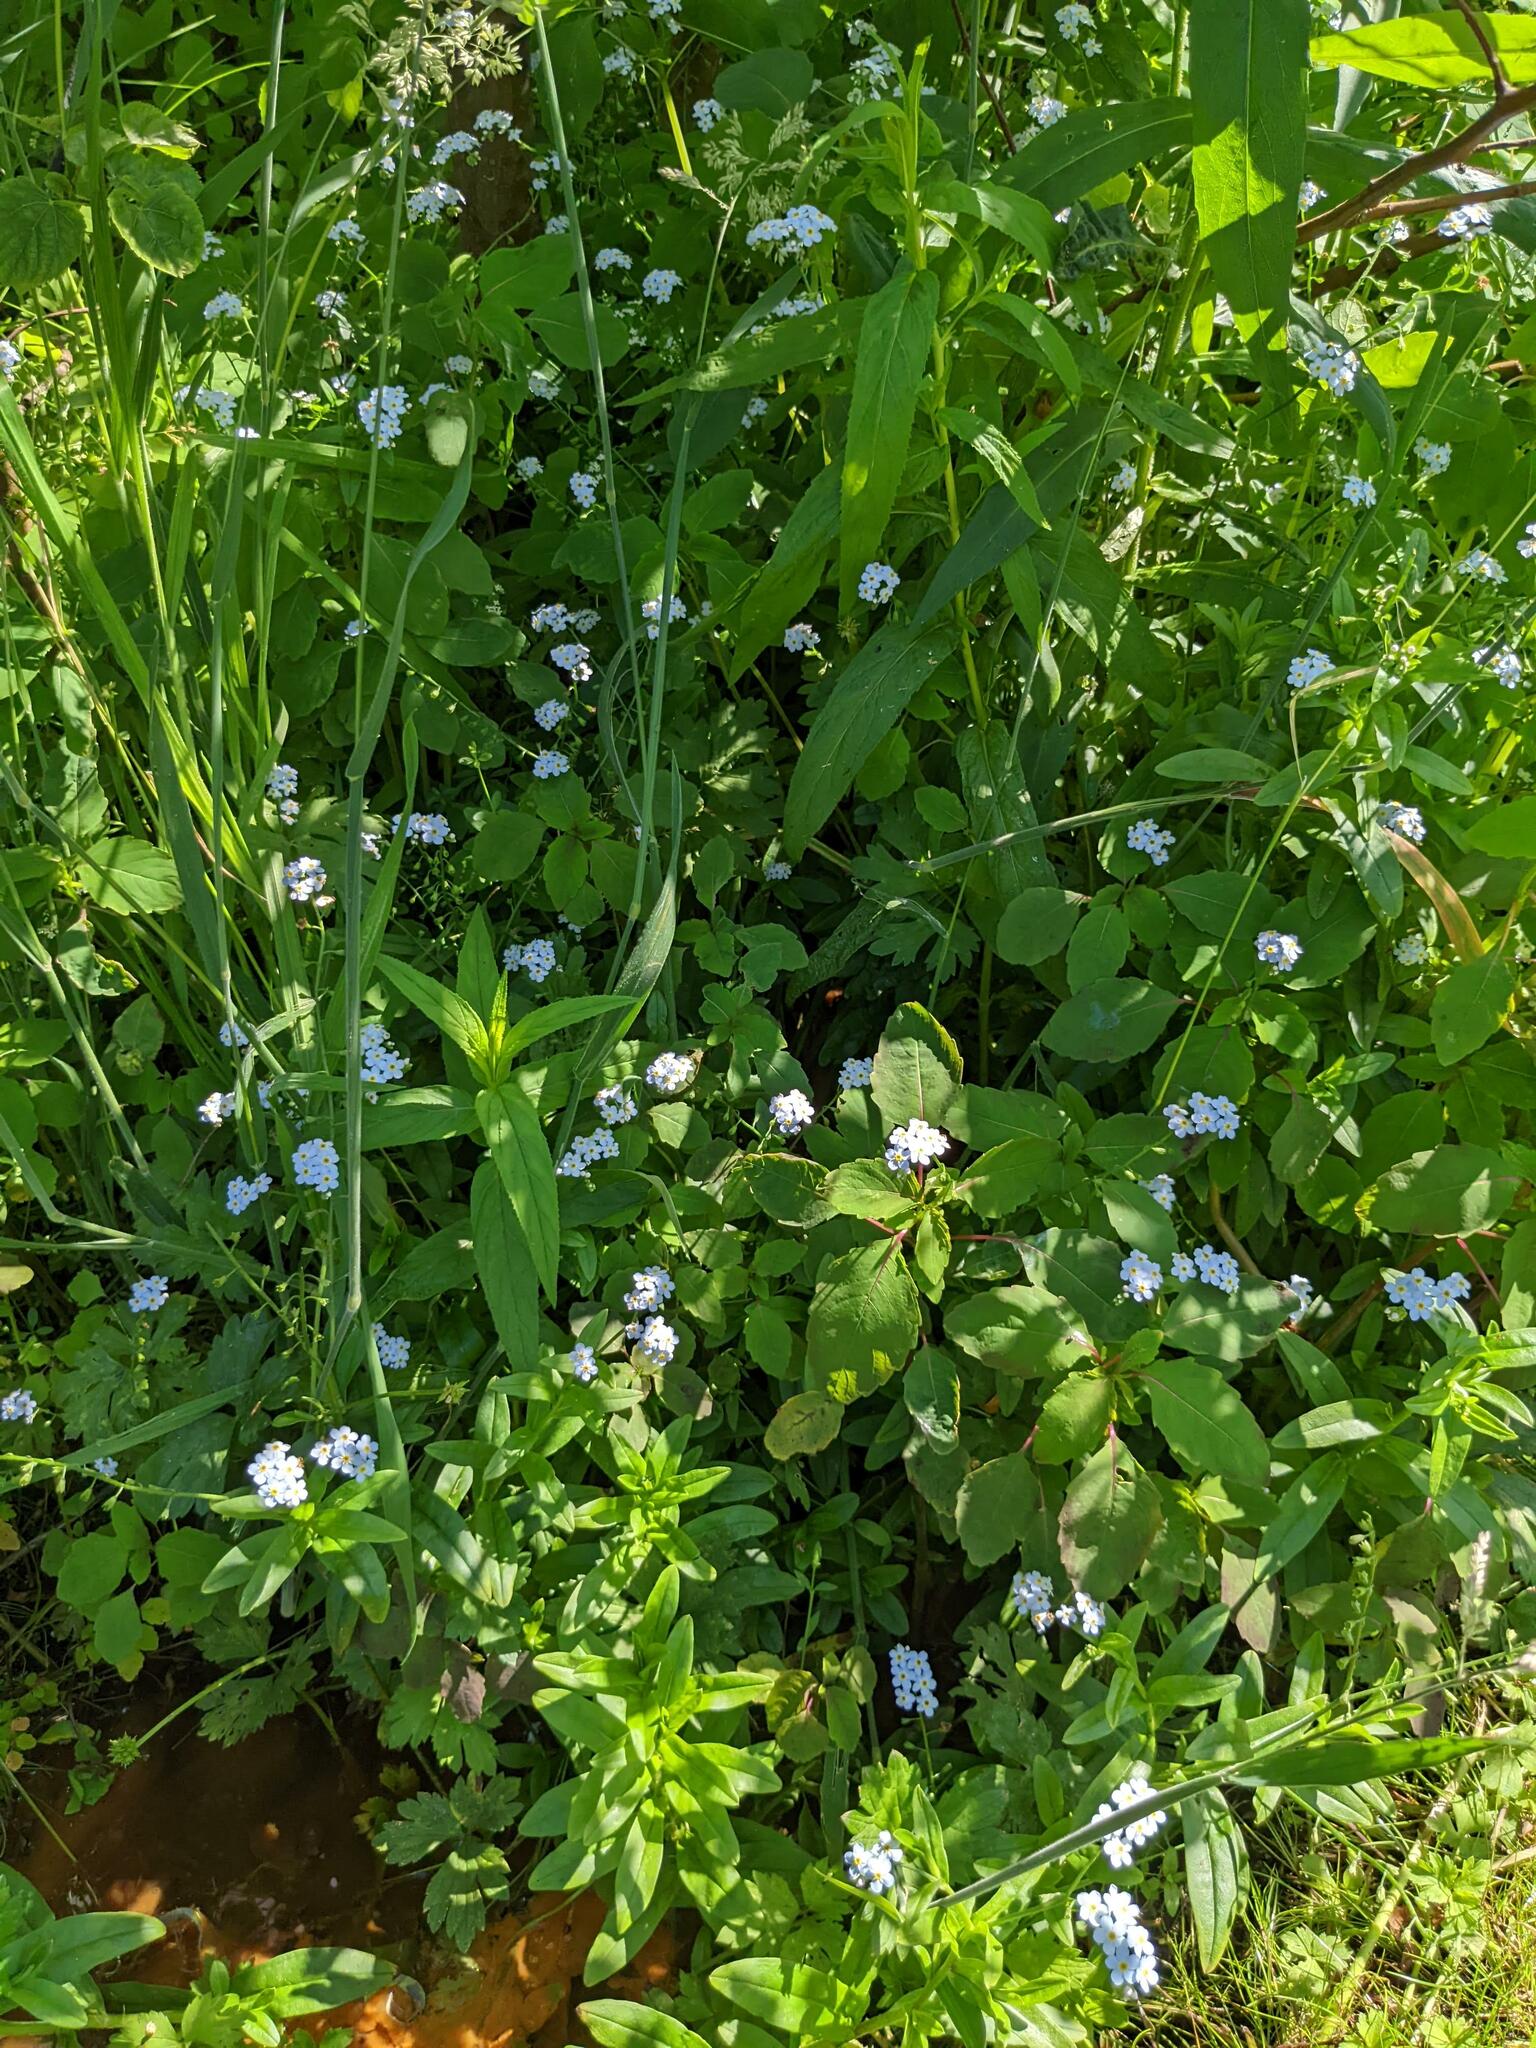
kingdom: Plantae
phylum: Tracheophyta
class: Magnoliopsida
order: Boraginales
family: Boraginaceae
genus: Myosotis
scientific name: Myosotis scorpioides
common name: Water forget-me-not
